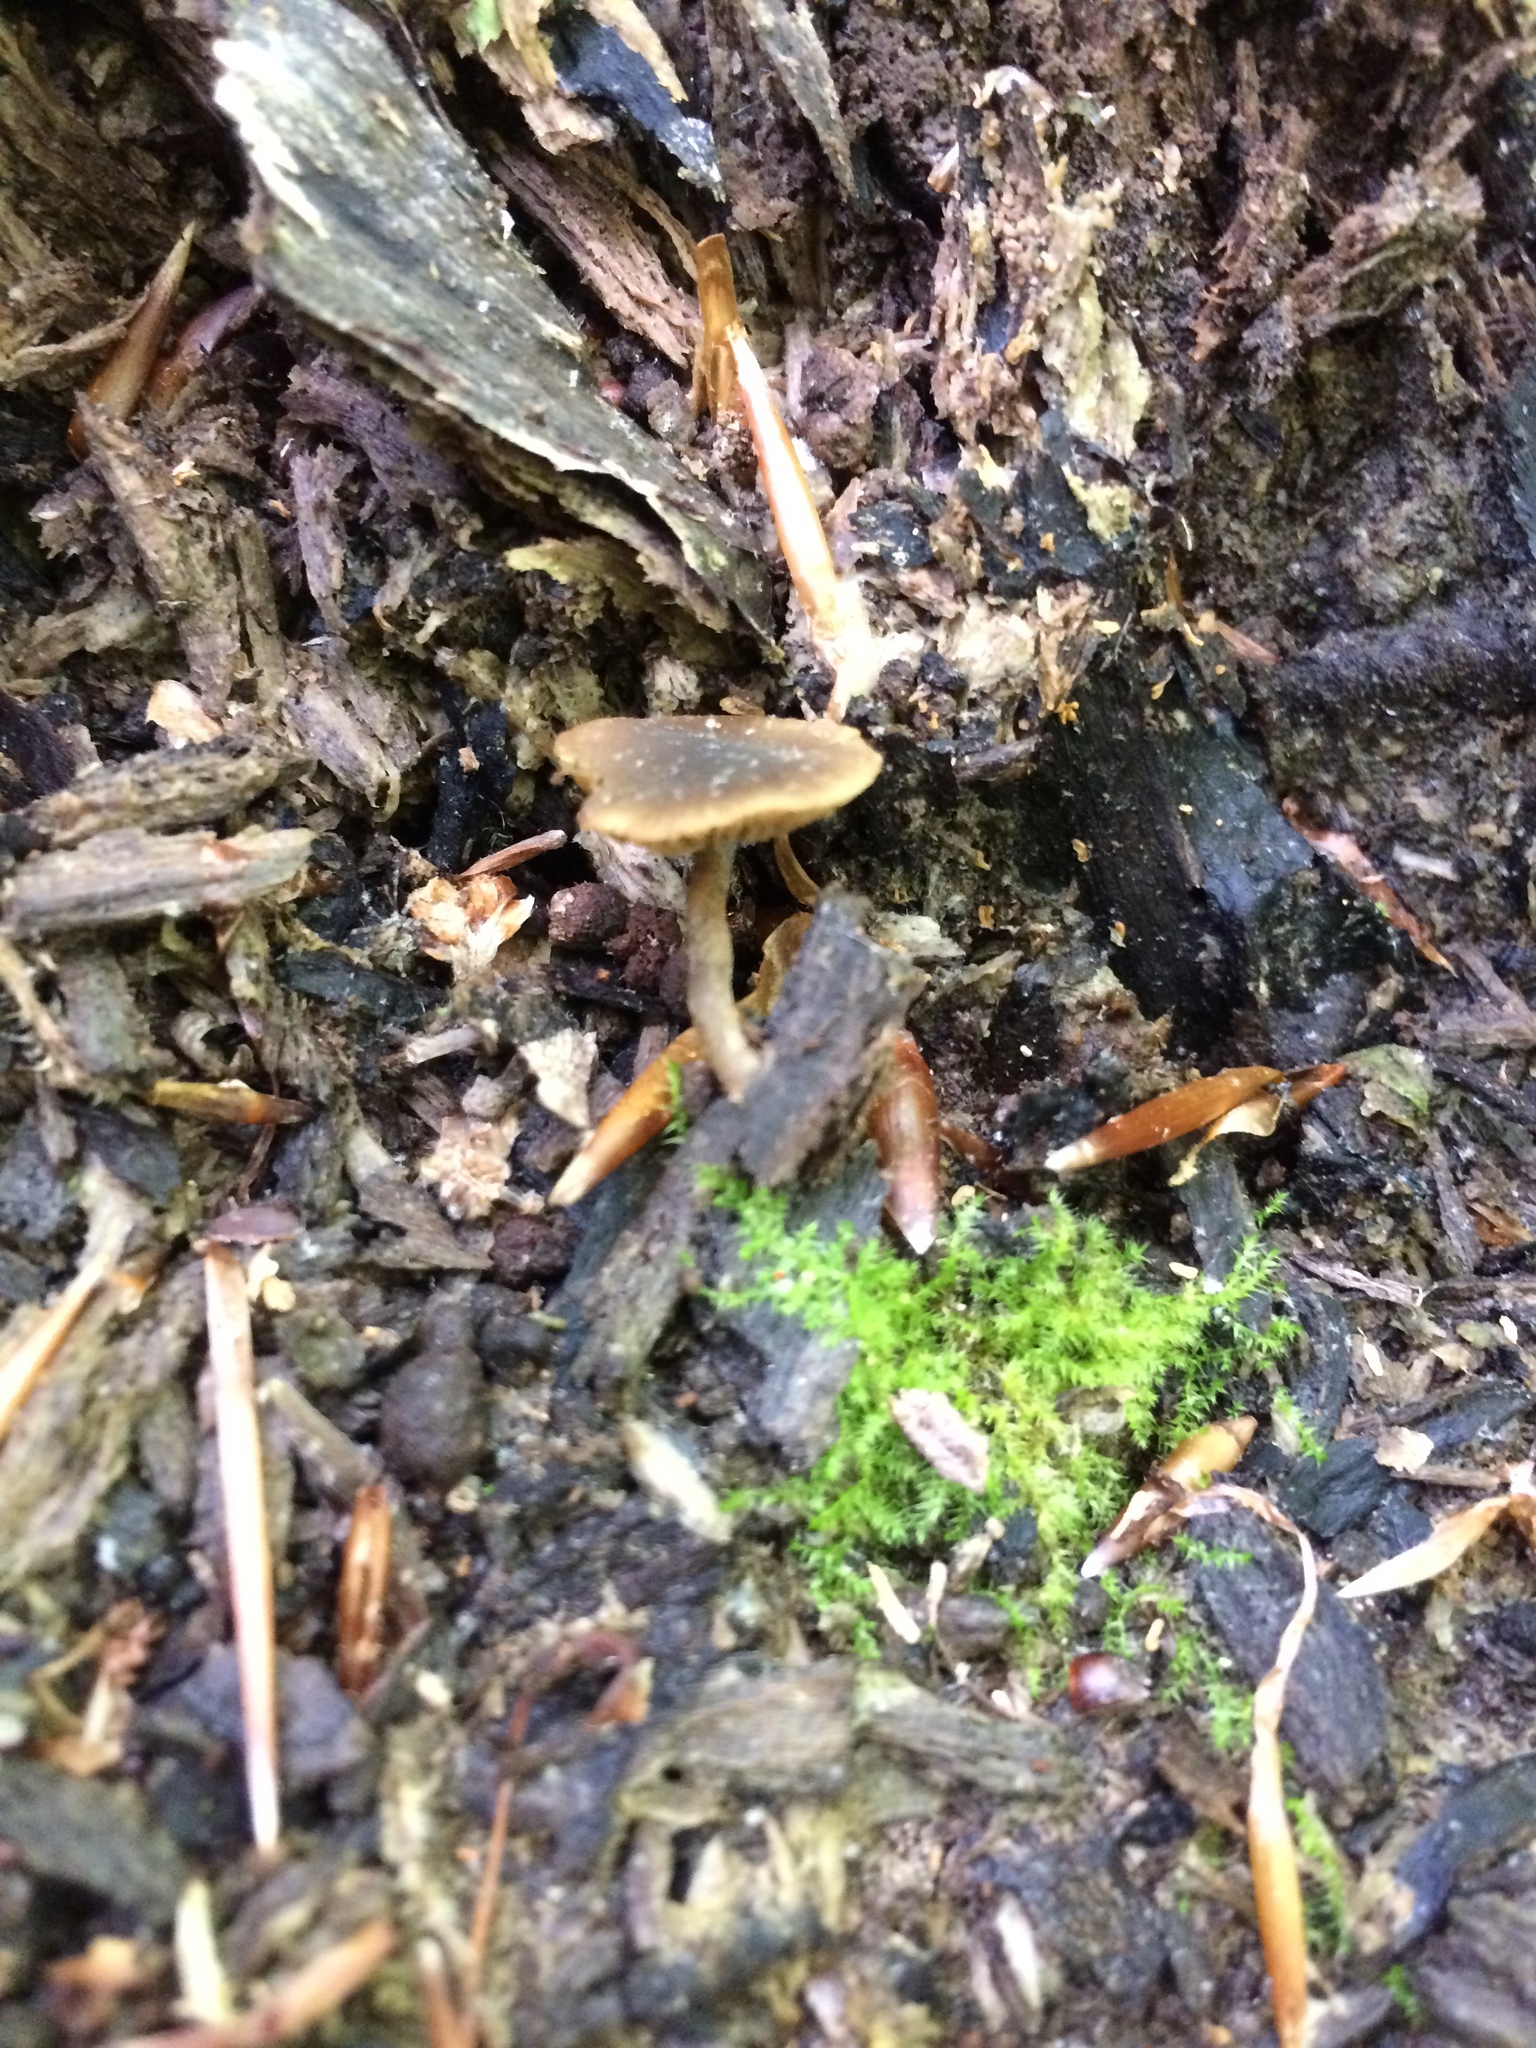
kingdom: Fungi
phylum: Basidiomycota
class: Agaricomycetes
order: Agaricales
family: Crepidotaceae
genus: Simocybe
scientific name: Simocybe centunculus
